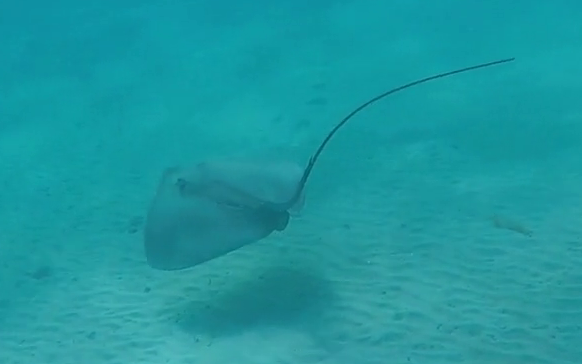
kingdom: Animalia
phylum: Chordata
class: Elasmobranchii
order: Myliobatiformes
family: Dasyatidae
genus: Pateobatis
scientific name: Pateobatis fai
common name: Pink whipray
